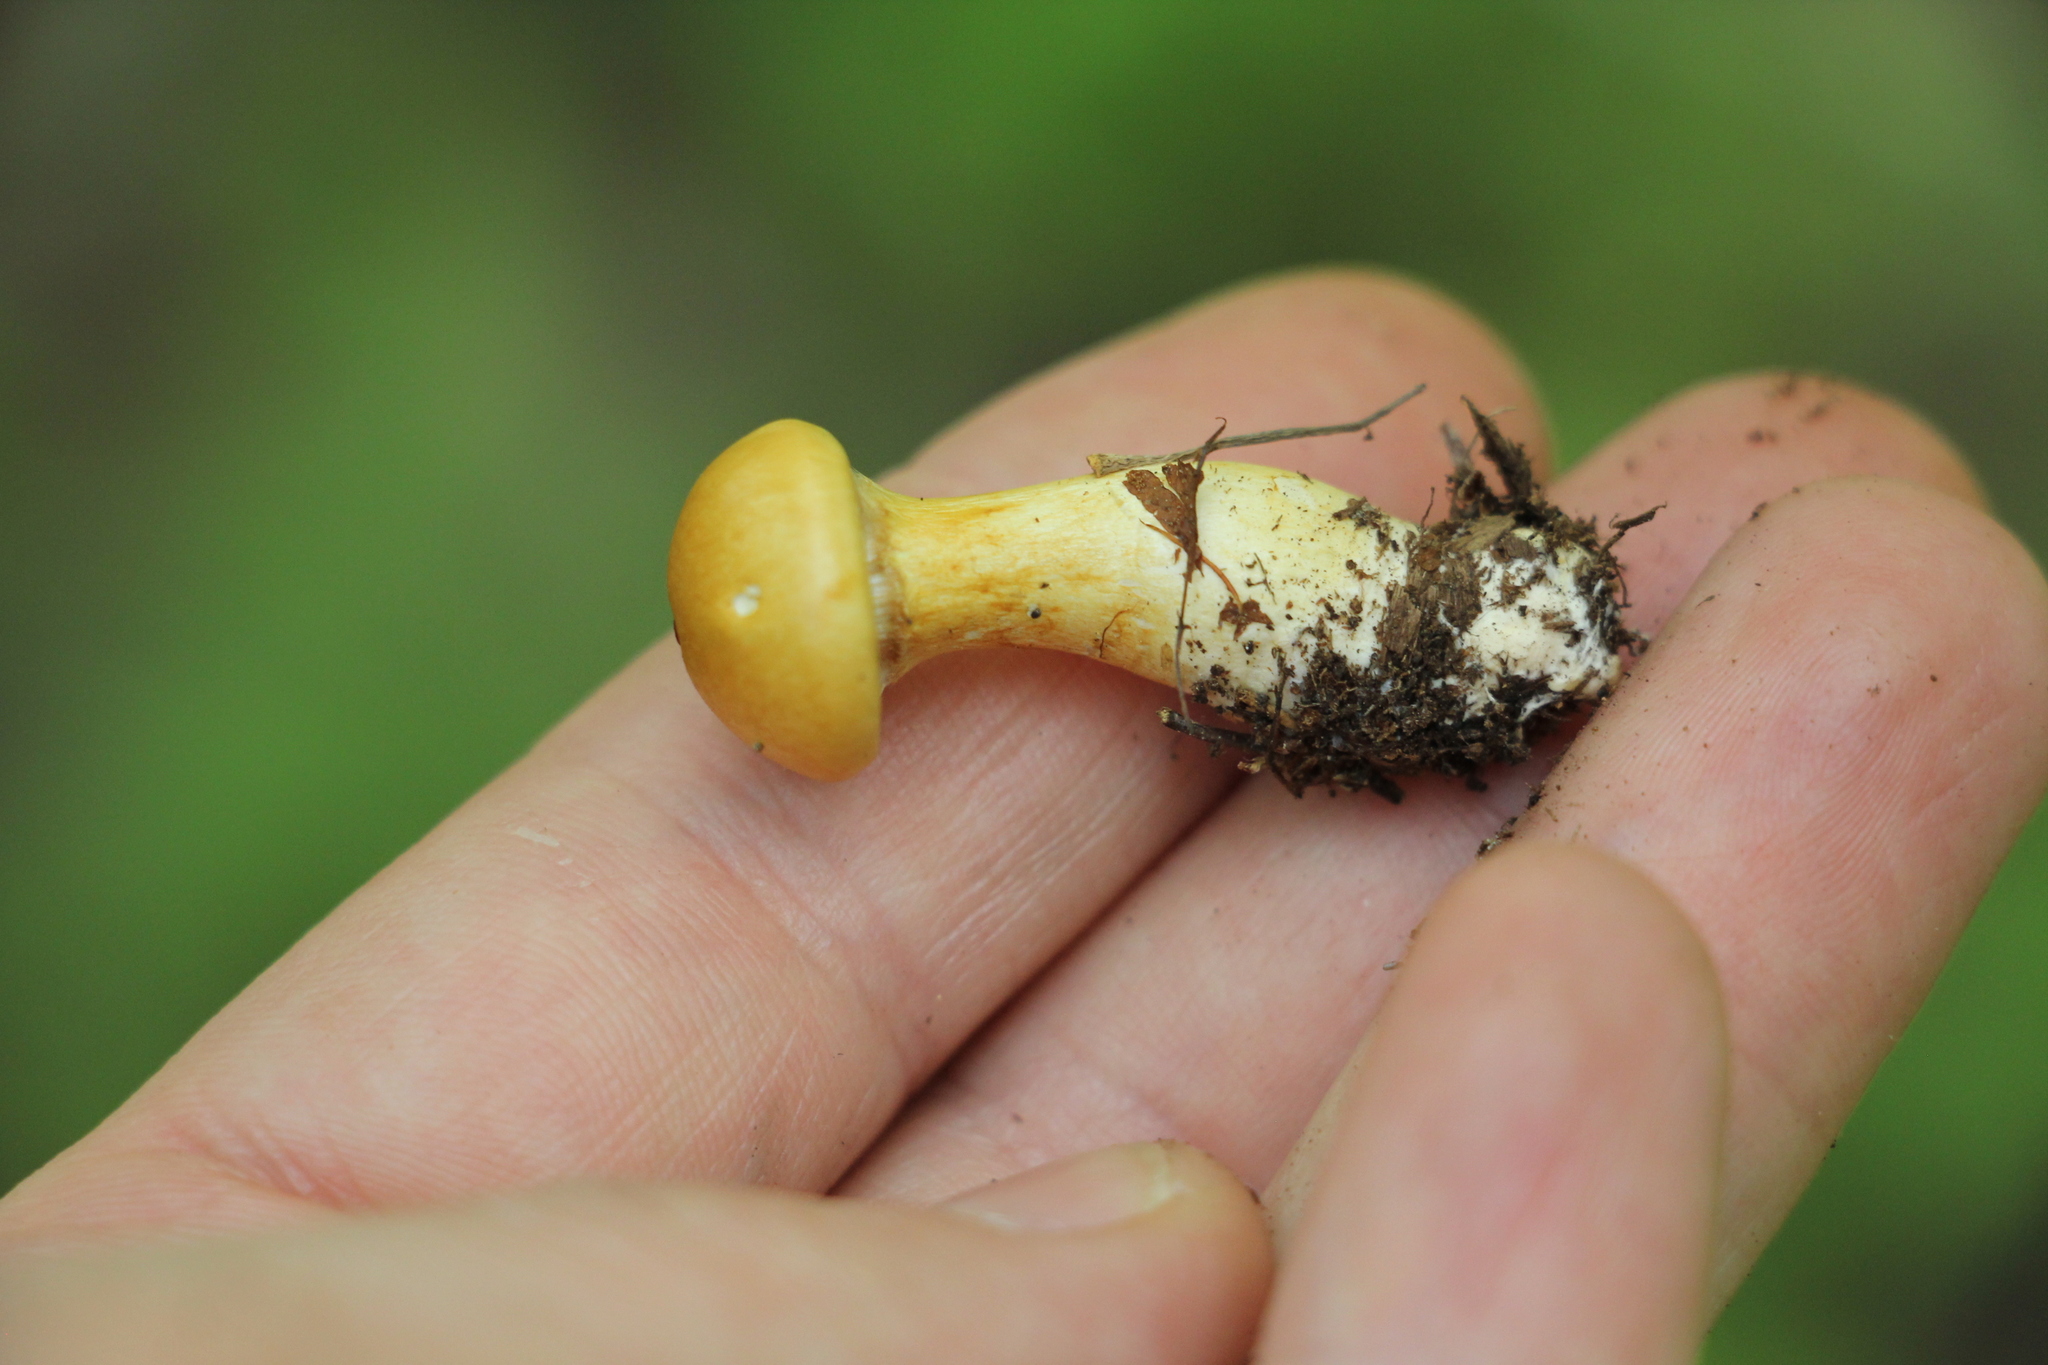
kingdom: Fungi
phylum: Basidiomycota
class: Agaricomycetes
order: Agaricales
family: Cortinariaceae
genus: Cortinarius
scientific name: Cortinarius delibutus
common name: Yellow webcap
